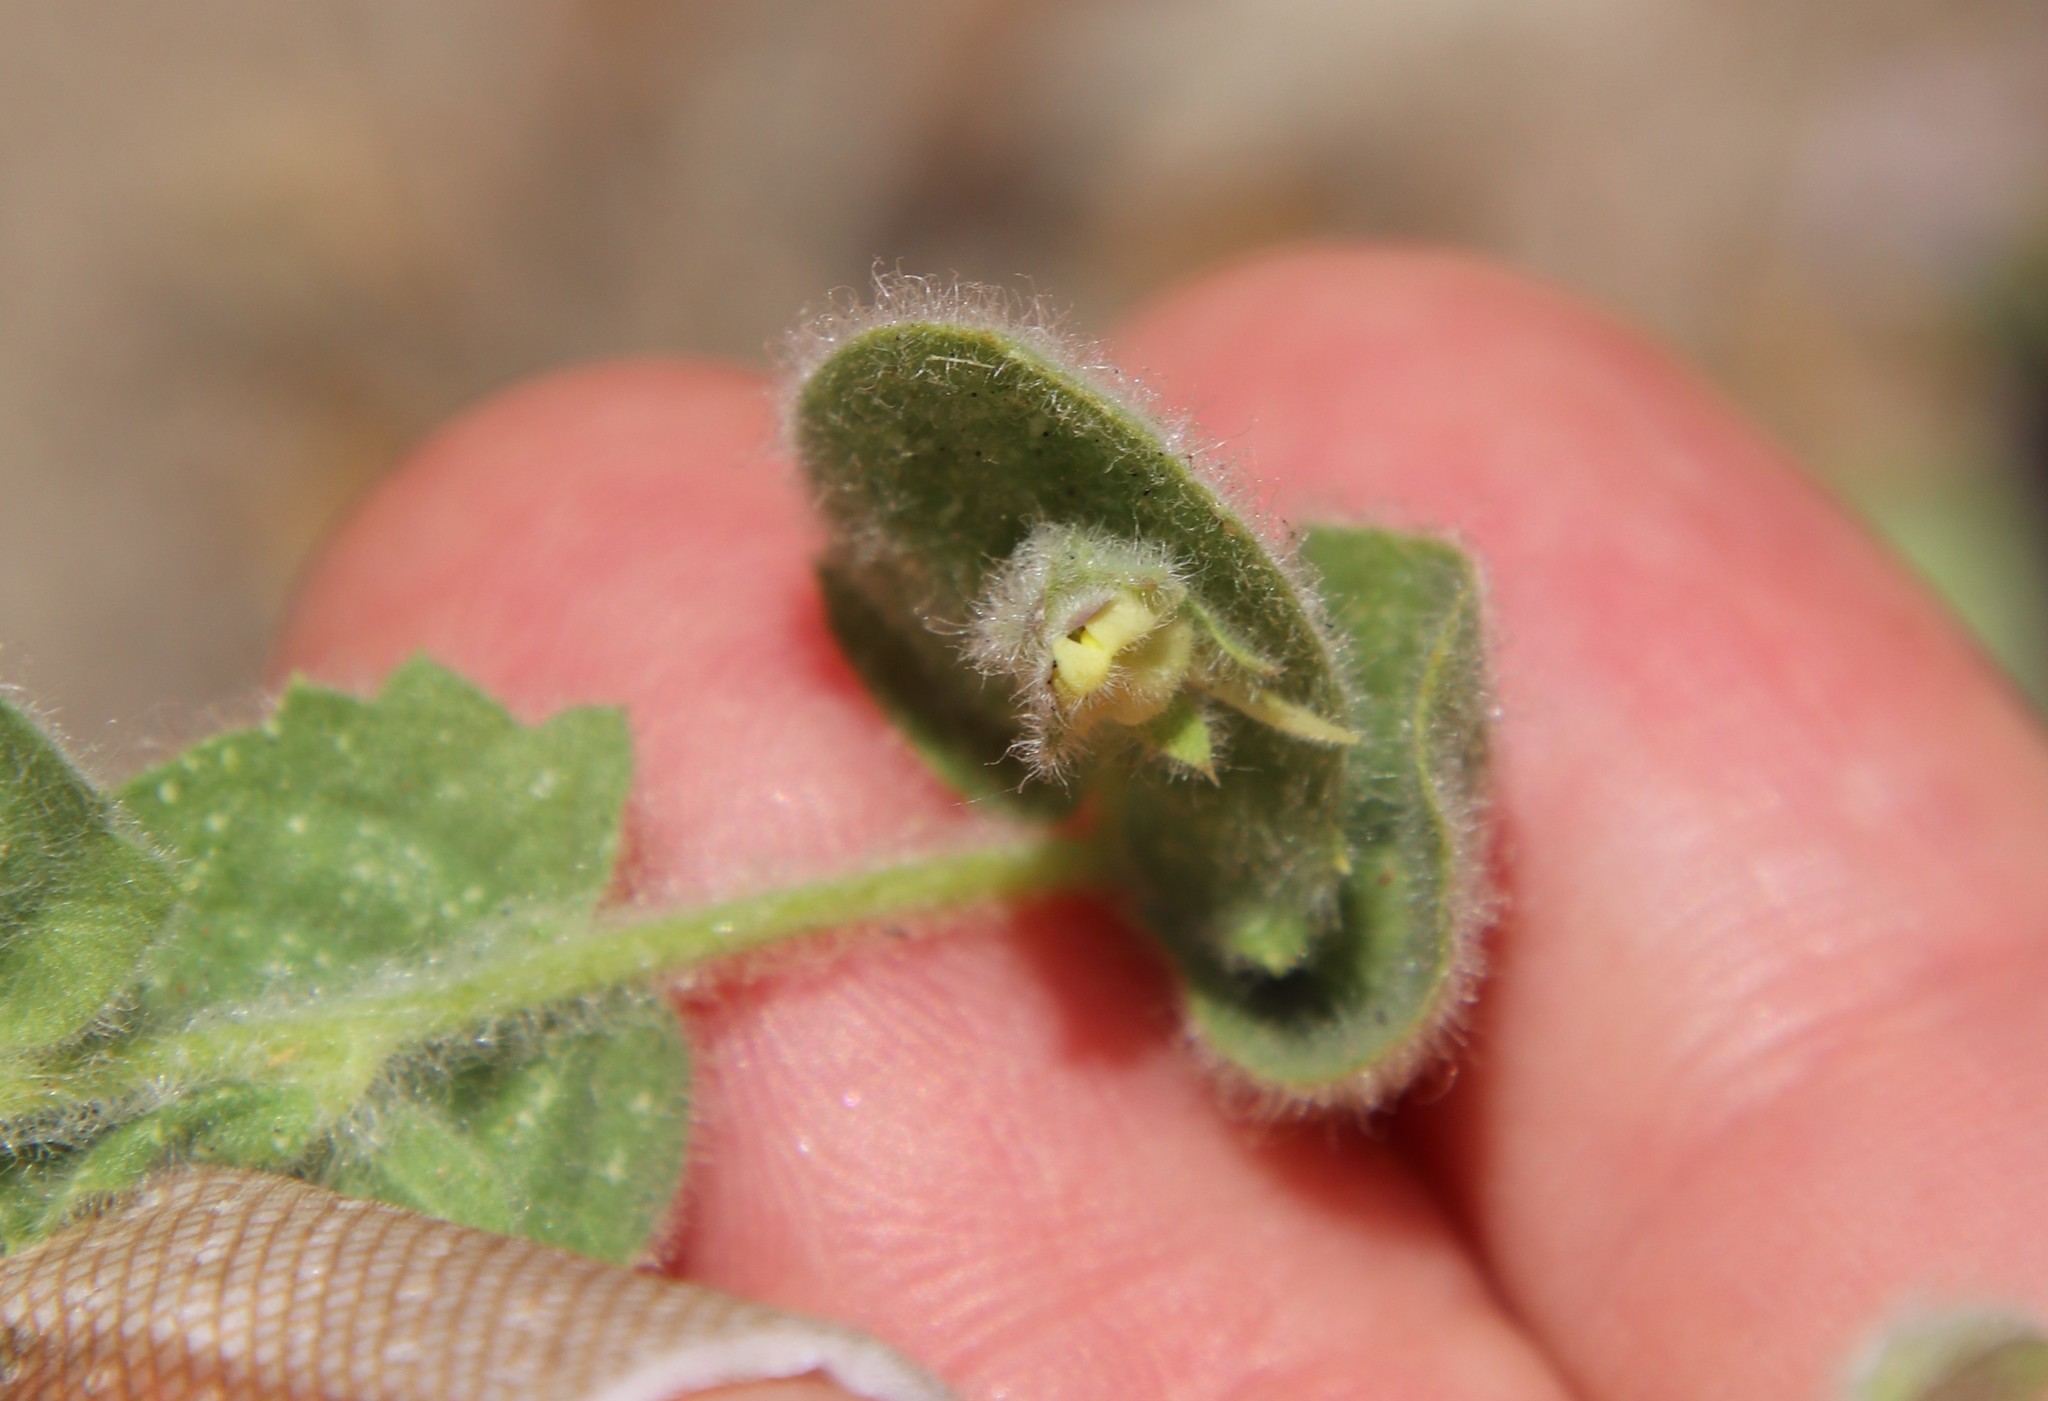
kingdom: Plantae
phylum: Tracheophyta
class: Magnoliopsida
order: Lamiales
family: Plantaginaceae
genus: Kickxia
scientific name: Kickxia elatine
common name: Sharp-leaved fluellen
